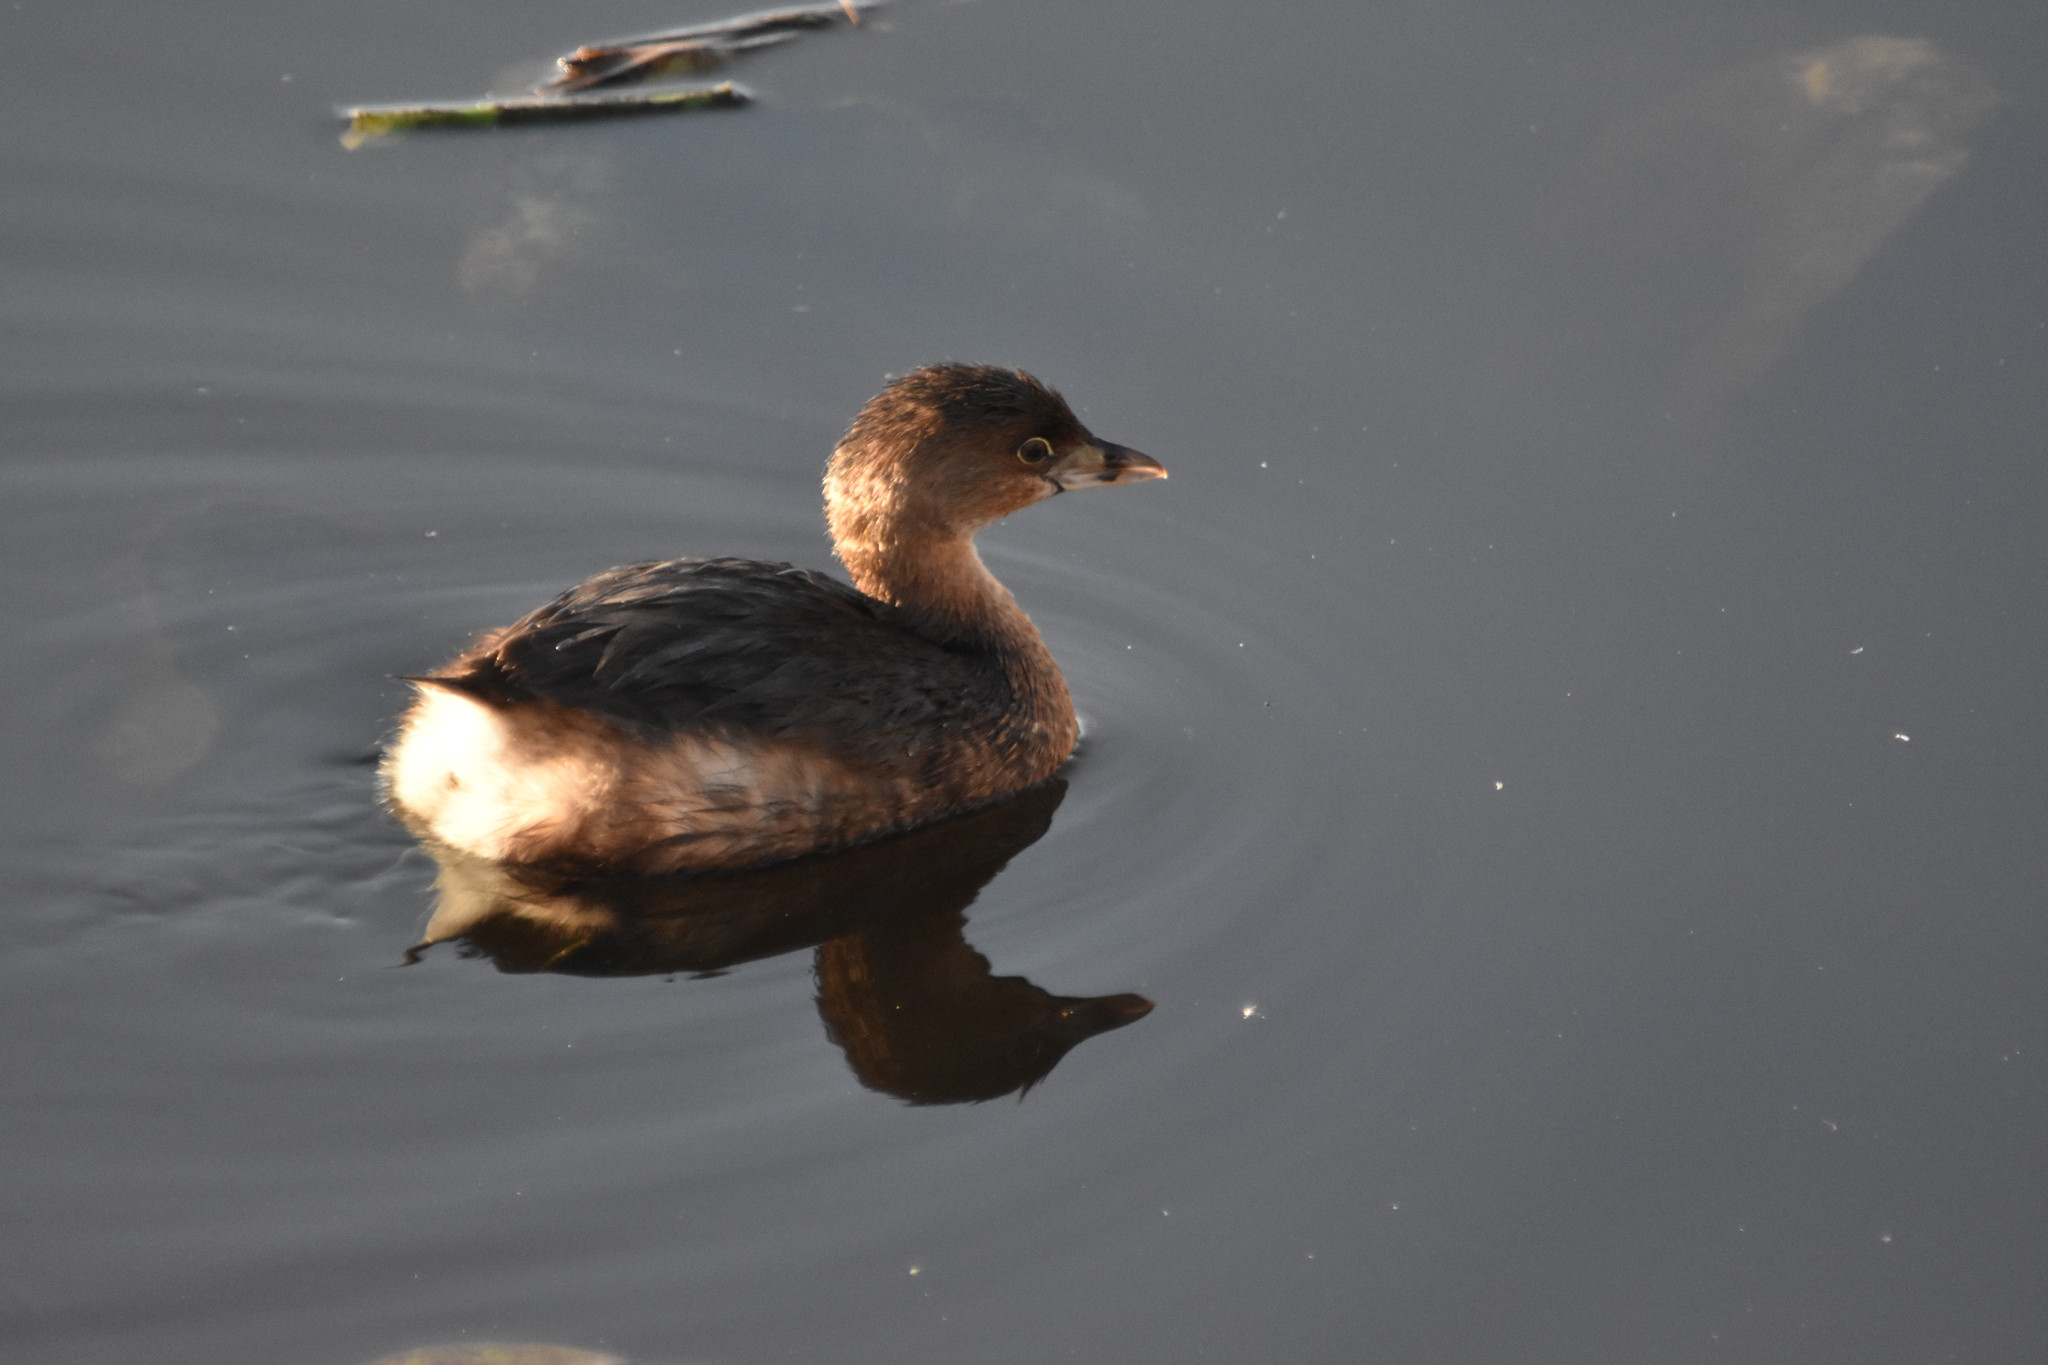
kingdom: Animalia
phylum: Chordata
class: Aves
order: Podicipediformes
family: Podicipedidae
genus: Podilymbus
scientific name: Podilymbus podiceps
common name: Pied-billed grebe
